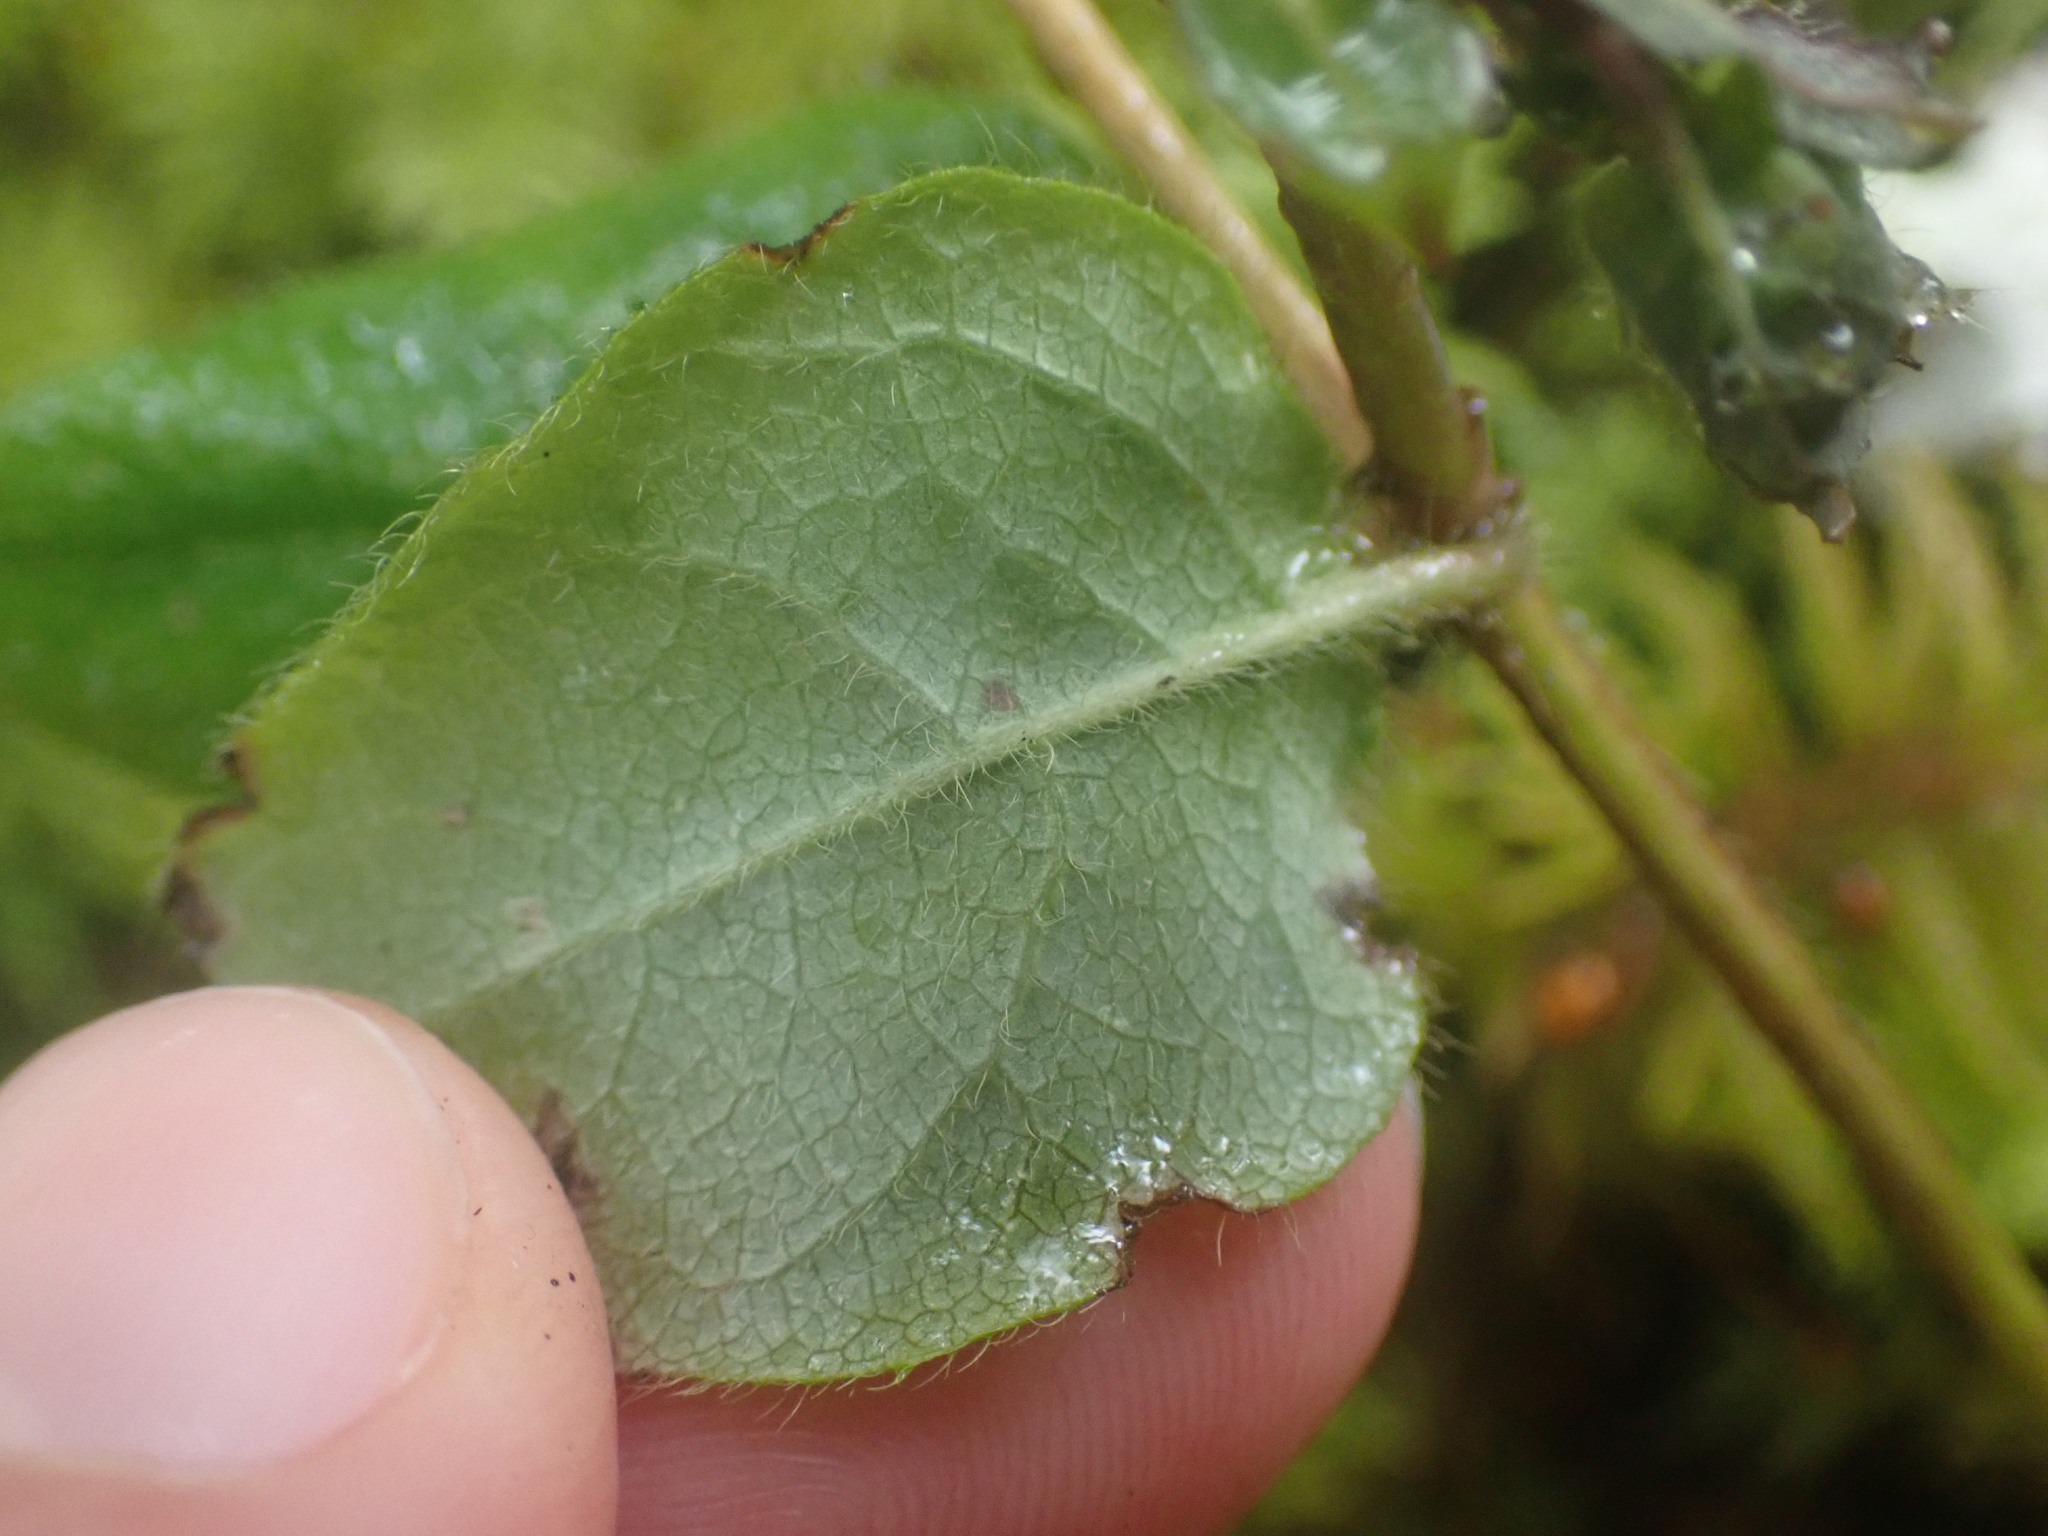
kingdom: Plantae
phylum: Tracheophyta
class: Magnoliopsida
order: Dipsacales
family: Caprifoliaceae
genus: Lonicera
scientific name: Lonicera hispidula
